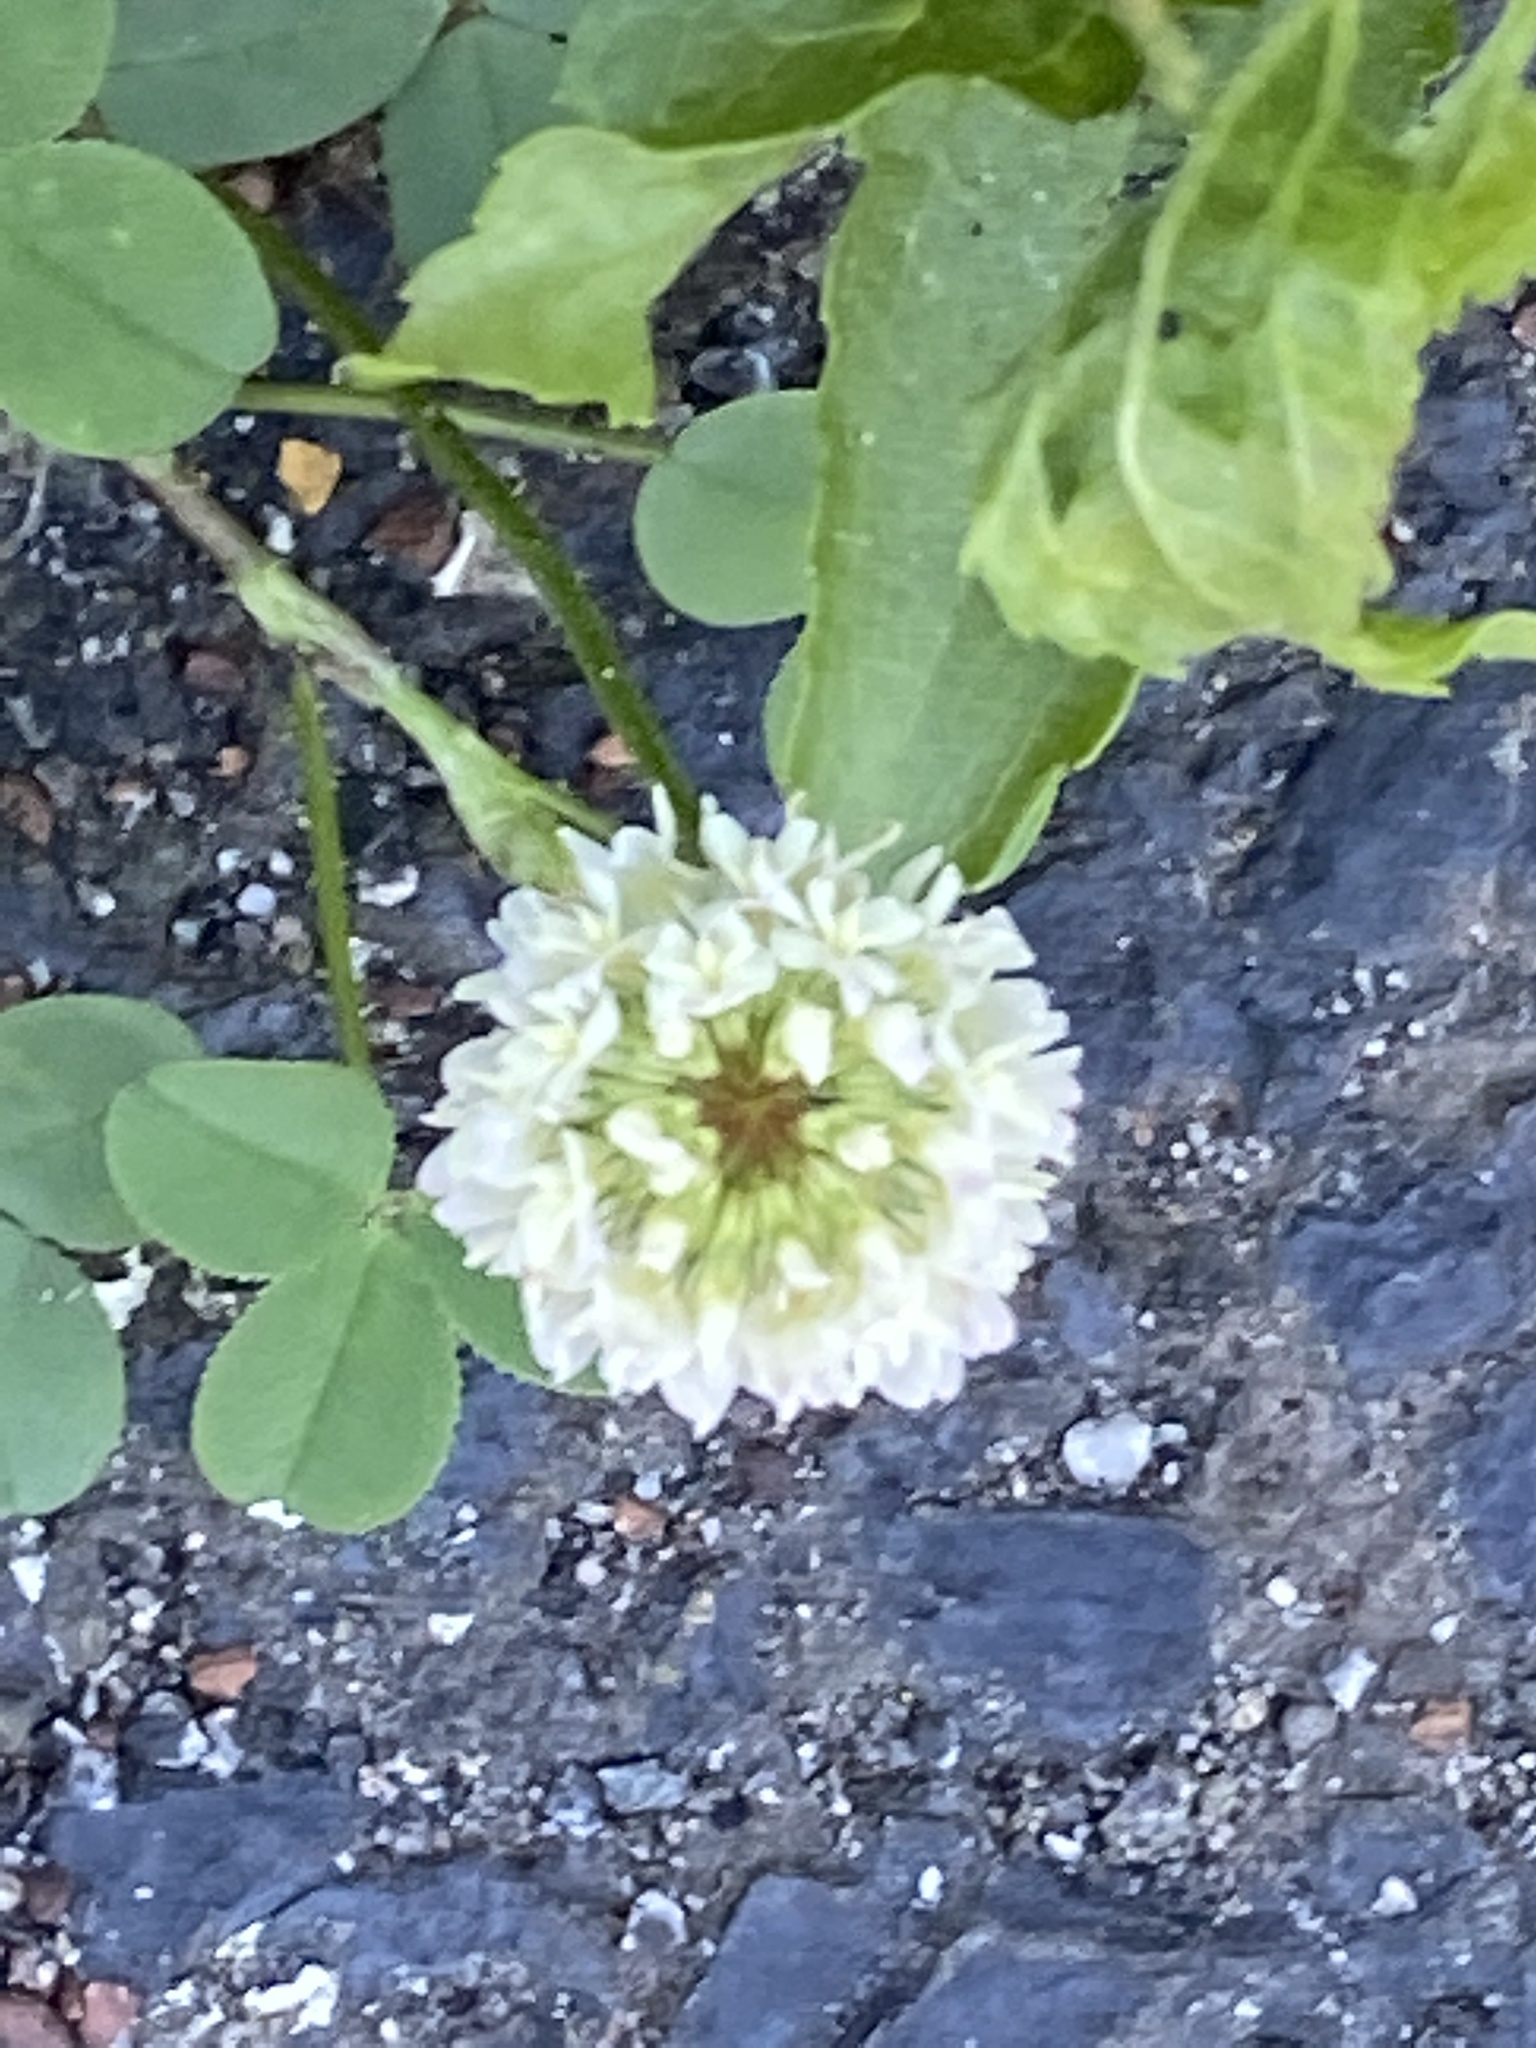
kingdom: Plantae
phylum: Tracheophyta
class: Magnoliopsida
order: Fabales
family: Fabaceae
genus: Trifolium
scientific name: Trifolium hybridum
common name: Alsike clover
